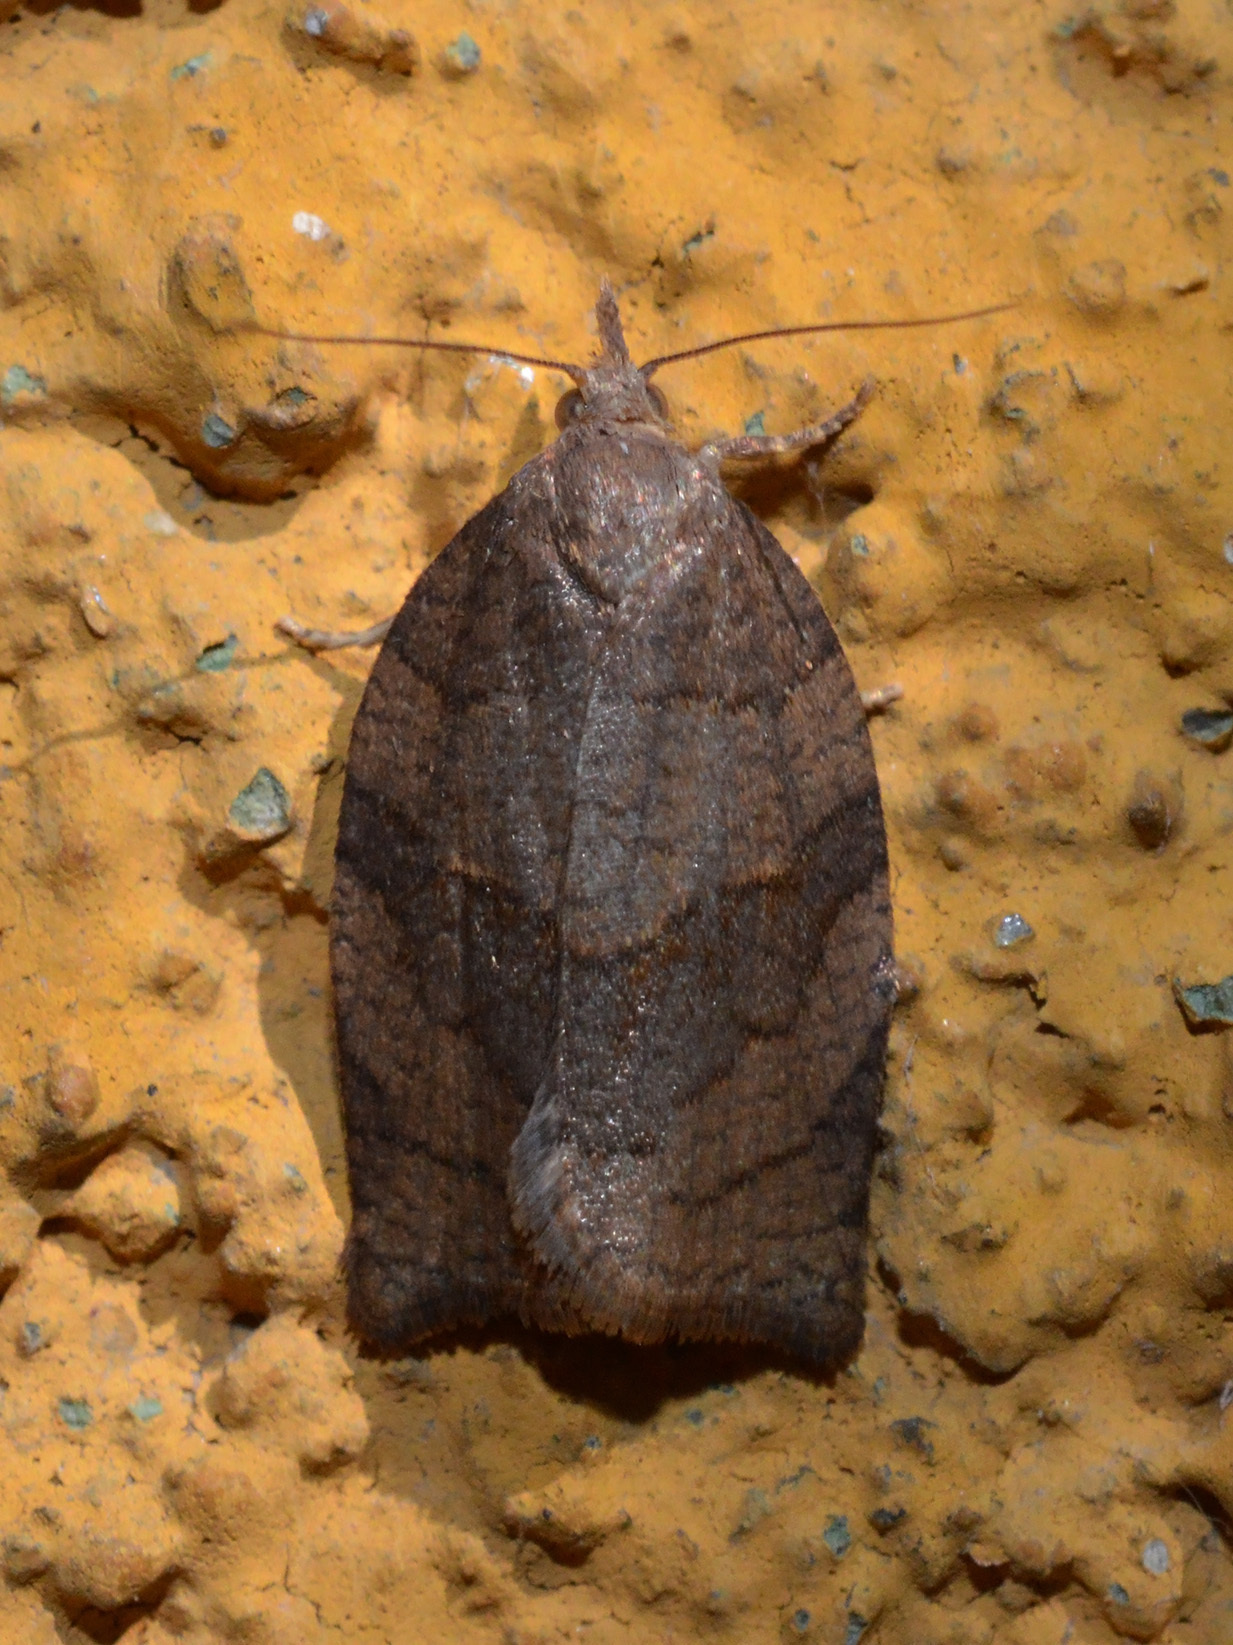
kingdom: Animalia
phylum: Arthropoda
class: Insecta
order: Lepidoptera
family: Tortricidae
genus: Pandemis
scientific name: Pandemis dumetana
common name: Thicket twist
